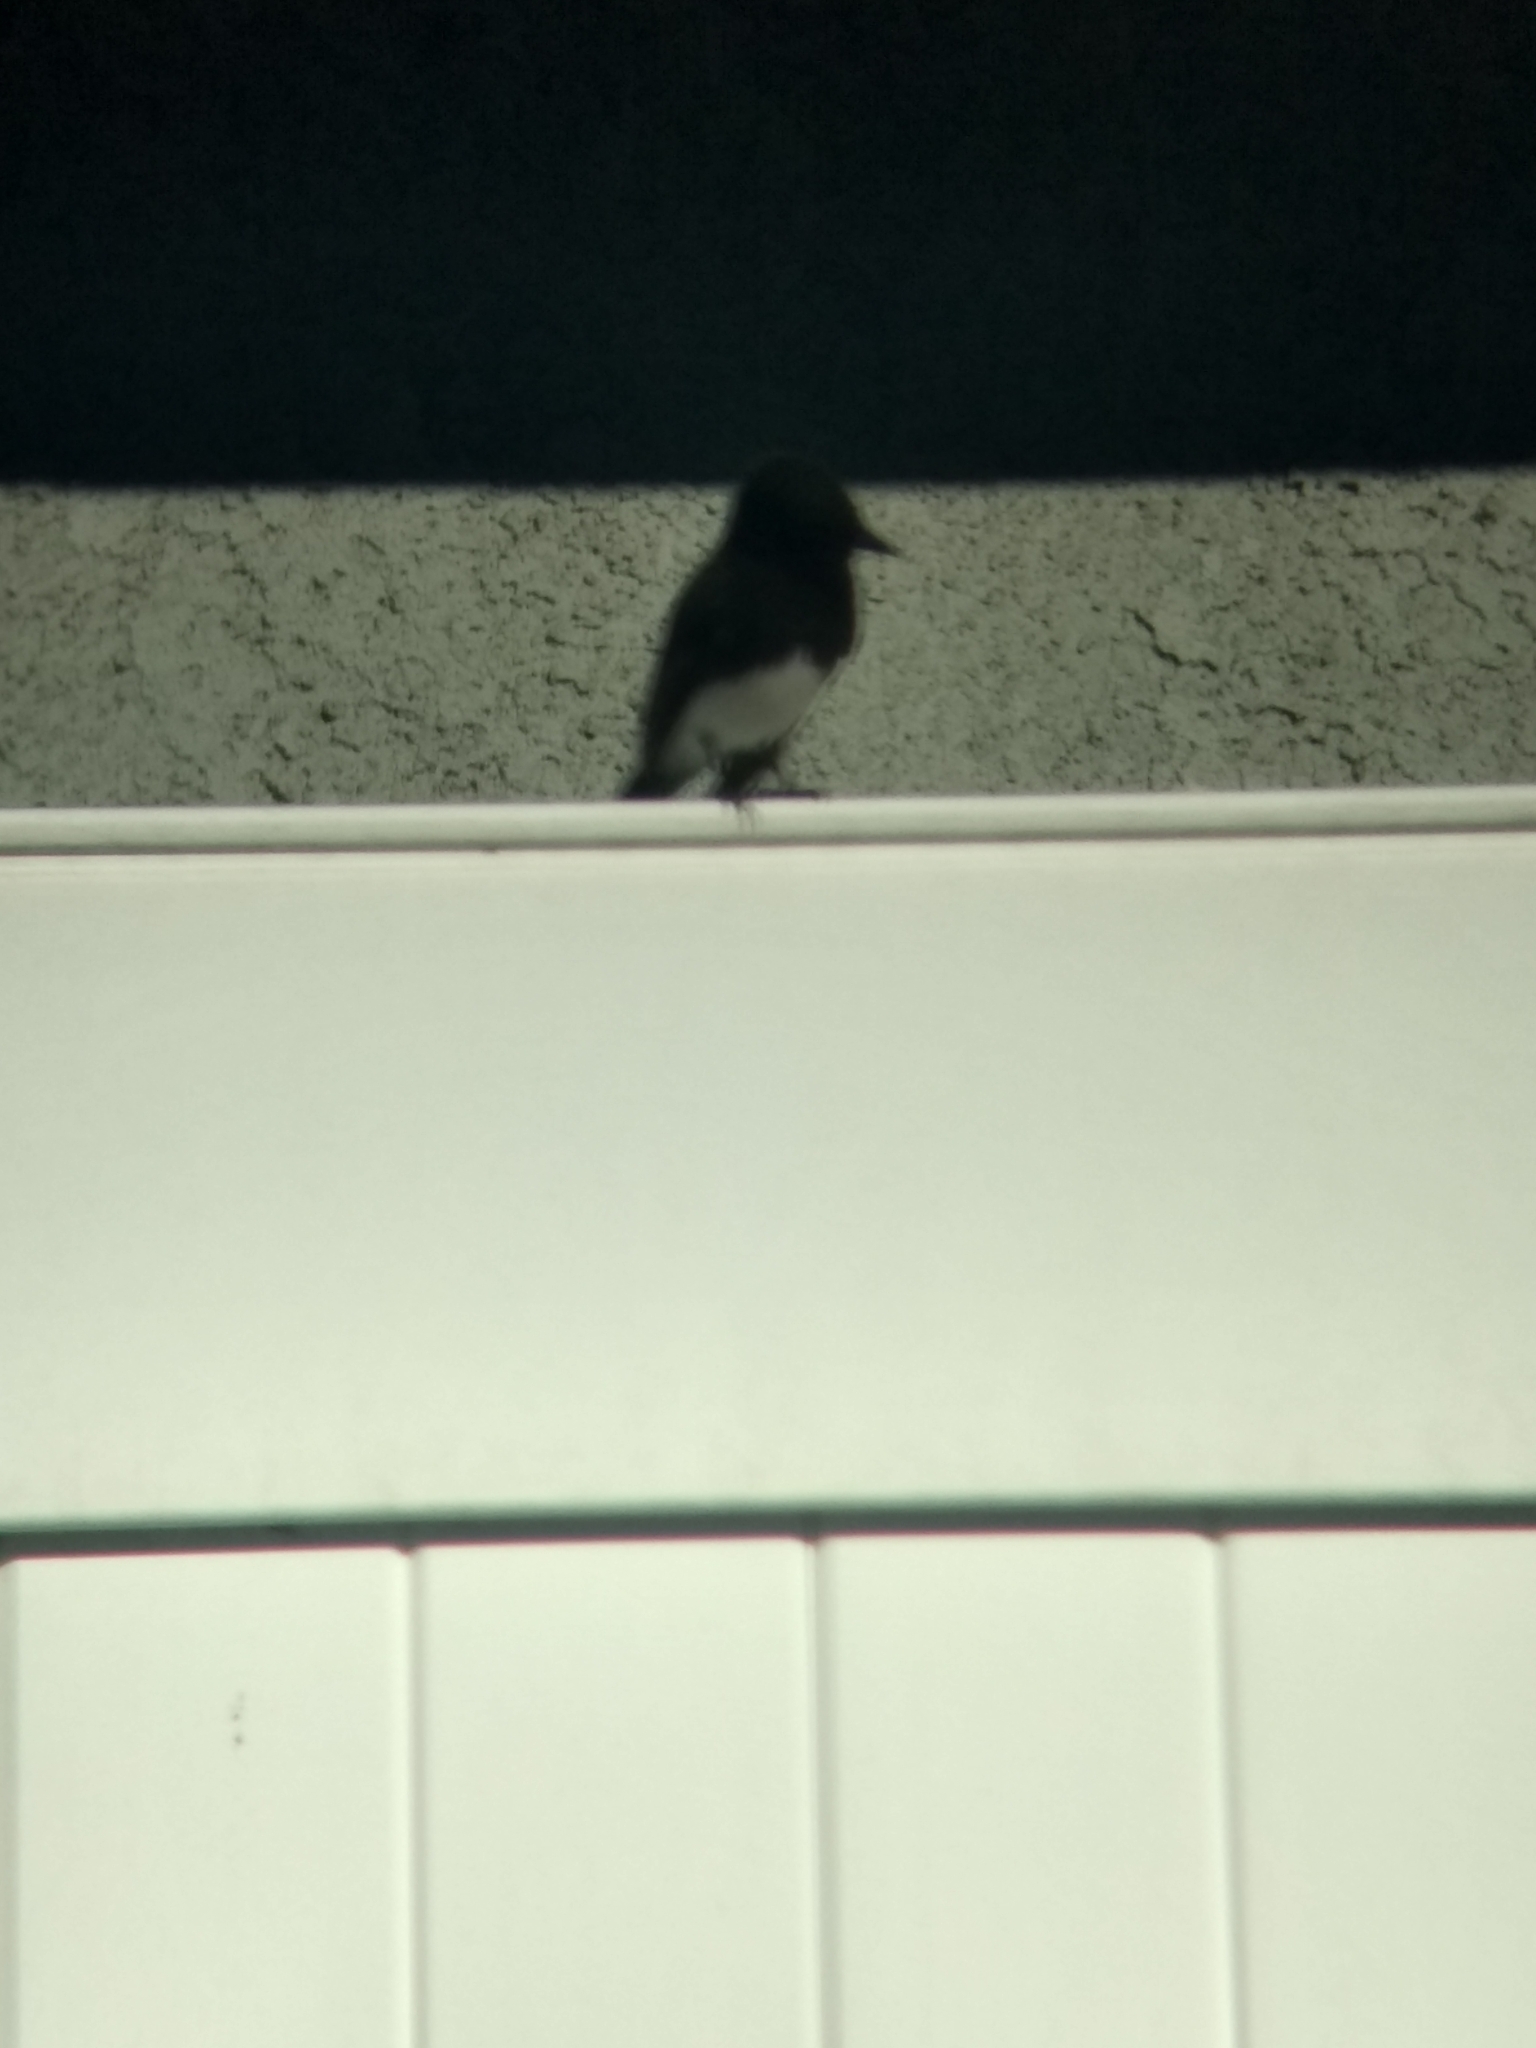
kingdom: Animalia
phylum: Chordata
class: Aves
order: Passeriformes
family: Tyrannidae
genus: Sayornis
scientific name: Sayornis nigricans
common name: Black phoebe
